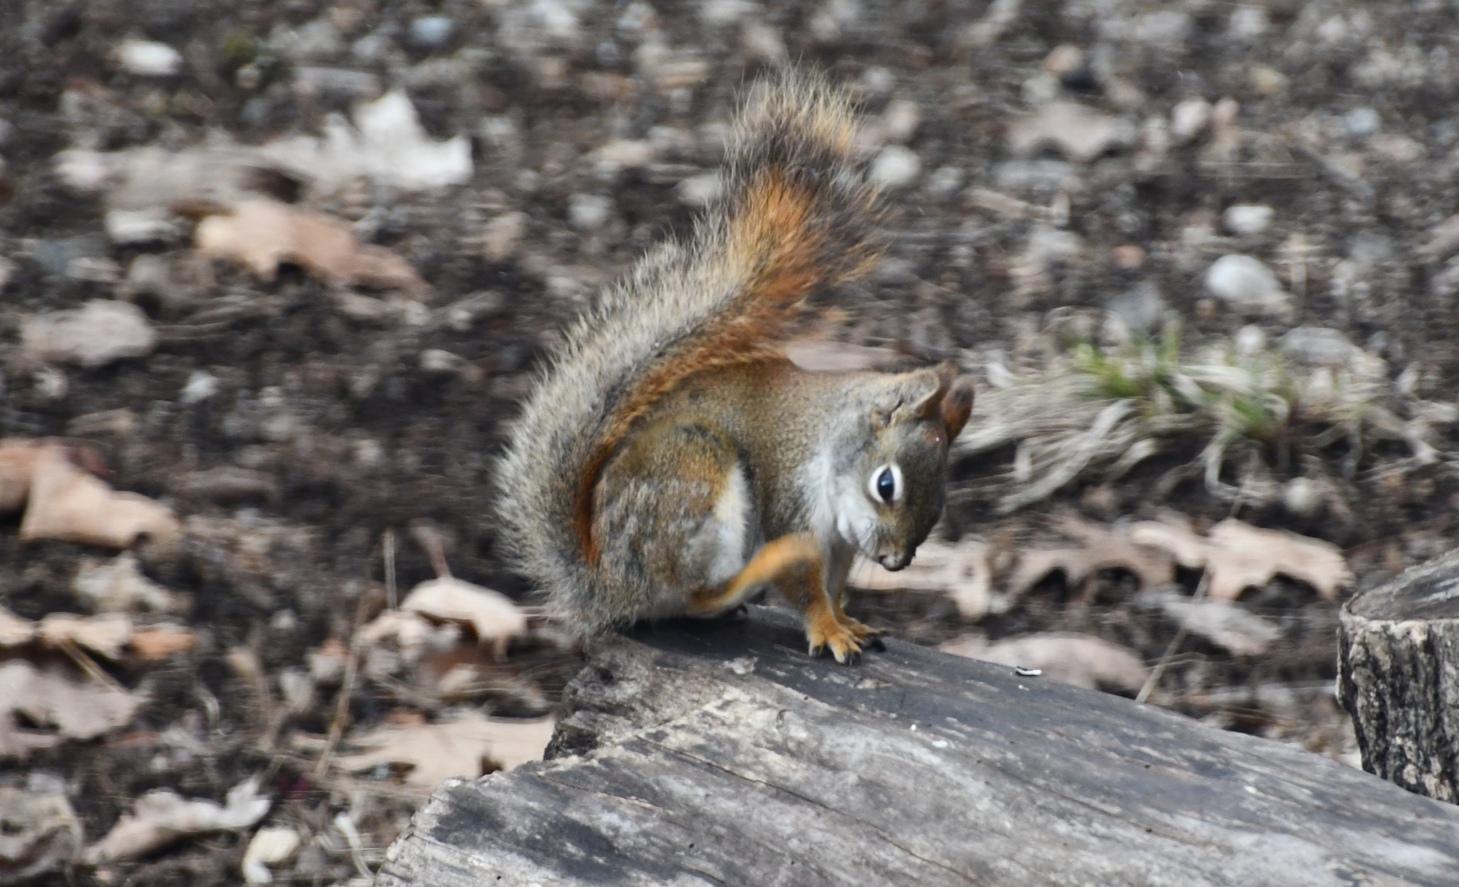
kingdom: Animalia
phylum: Chordata
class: Mammalia
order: Rodentia
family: Sciuridae
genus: Tamiasciurus
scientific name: Tamiasciurus hudsonicus
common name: Red squirrel
